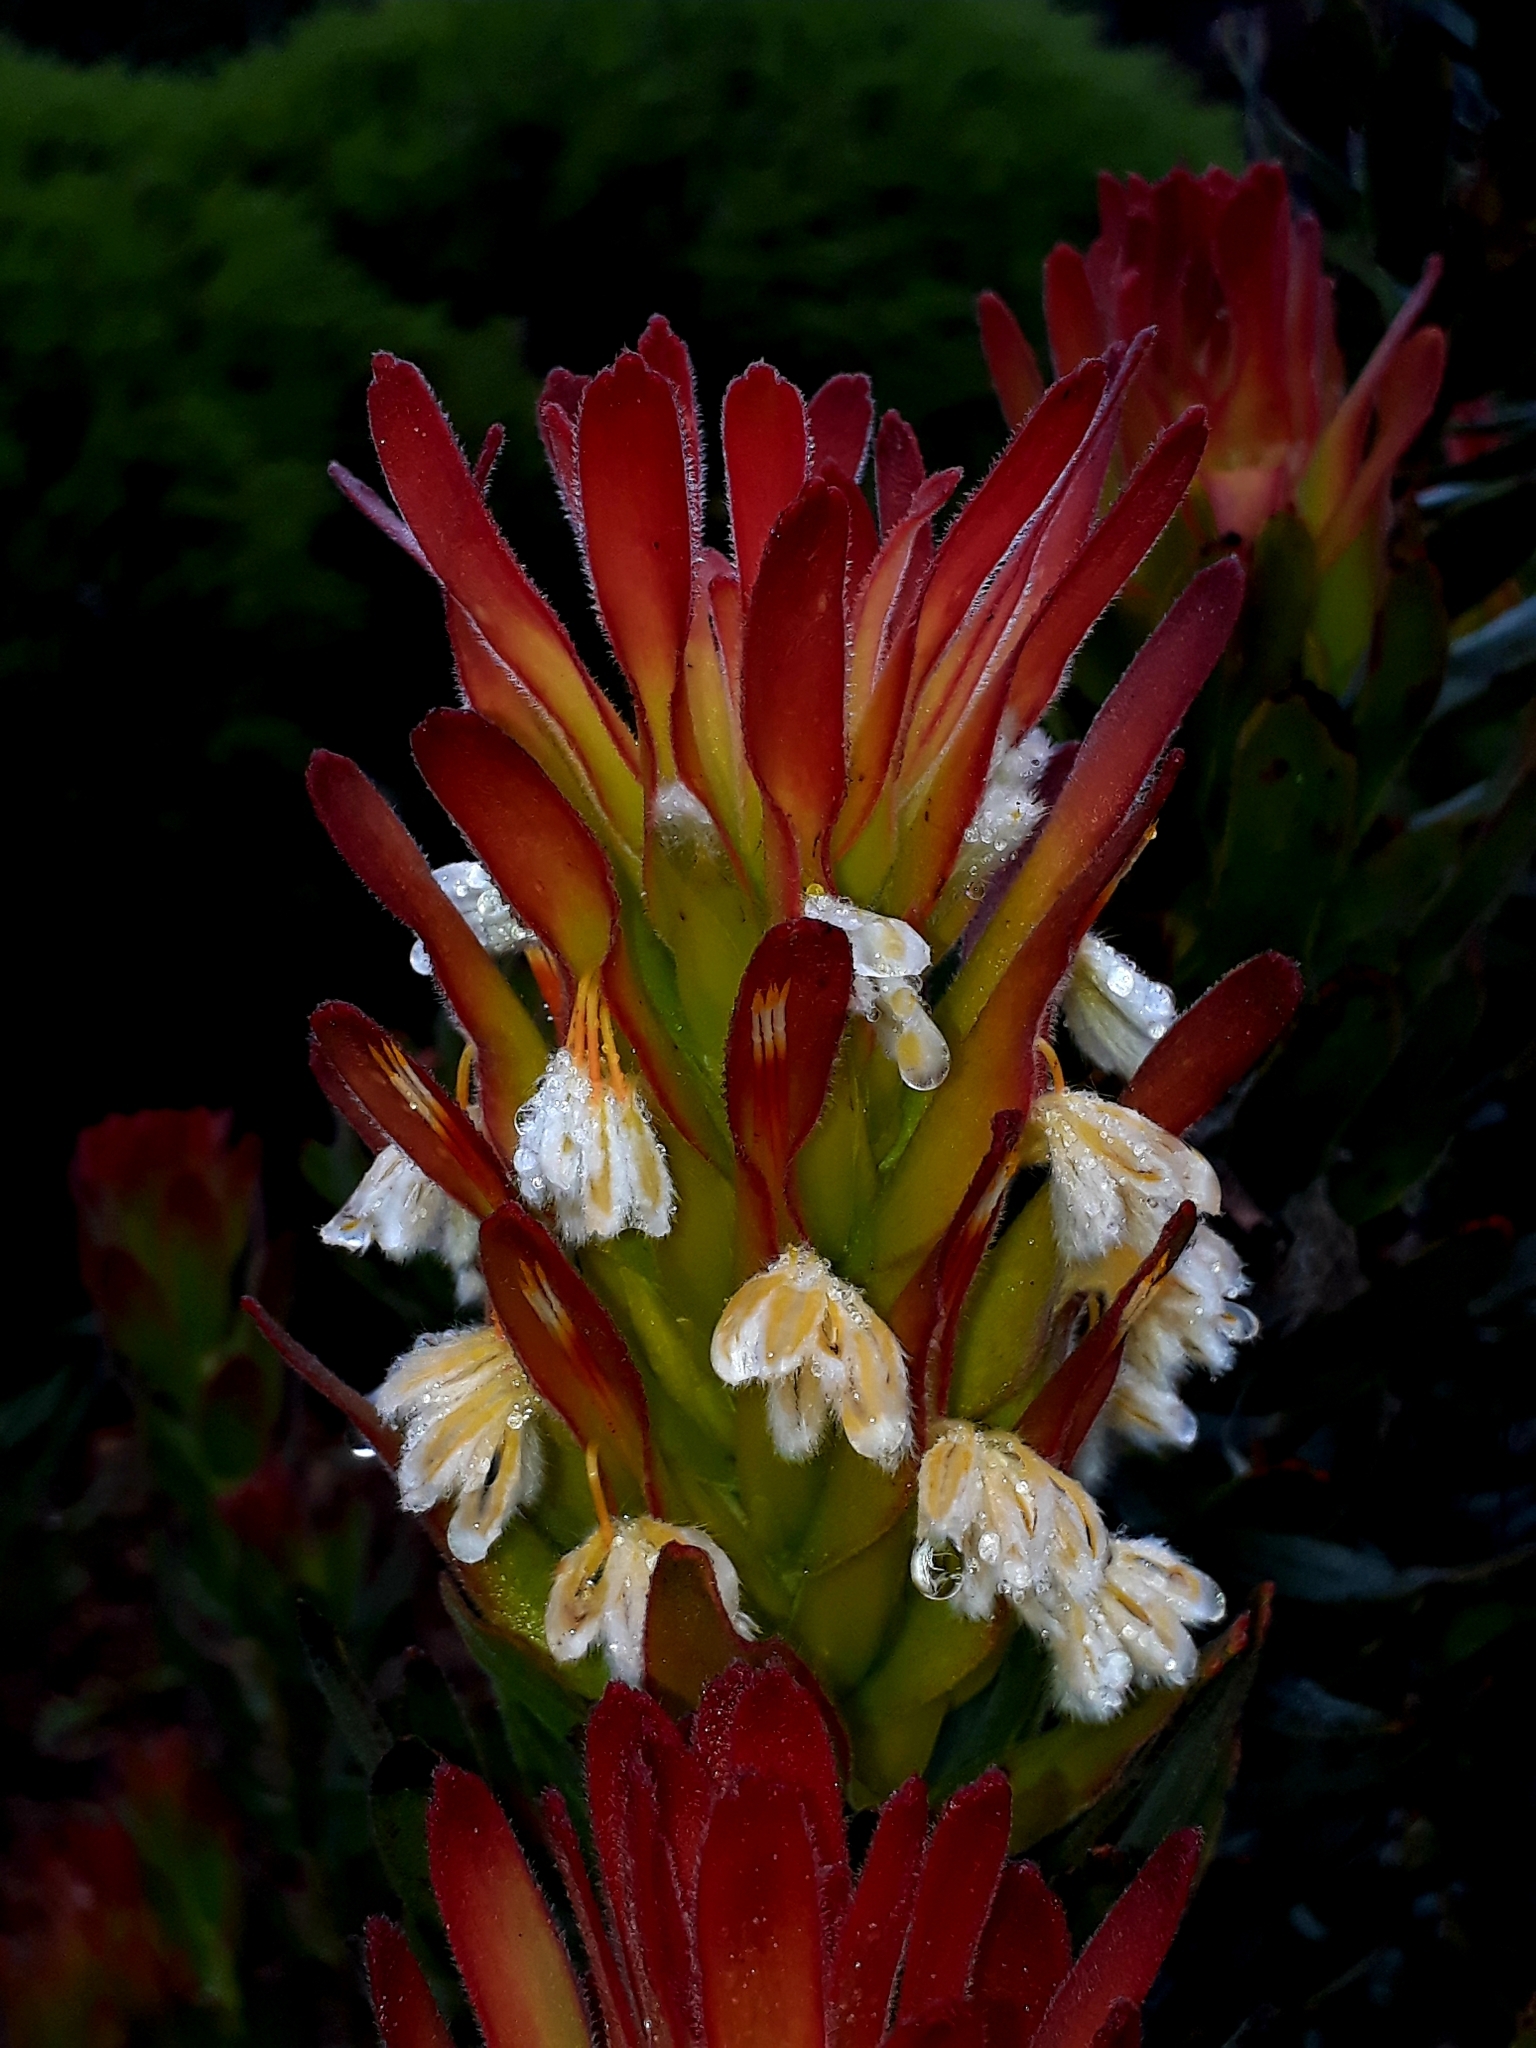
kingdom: Plantae
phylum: Tracheophyta
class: Magnoliopsida
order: Proteales
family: Proteaceae
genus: Mimetes
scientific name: Mimetes cucullatus
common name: Common pagoda
